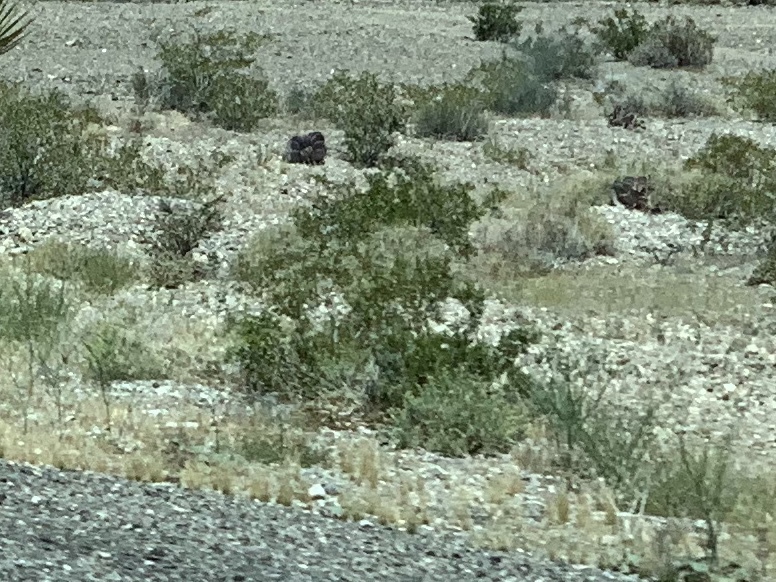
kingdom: Plantae
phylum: Tracheophyta
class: Magnoliopsida
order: Zygophyllales
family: Zygophyllaceae
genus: Larrea
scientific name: Larrea tridentata
